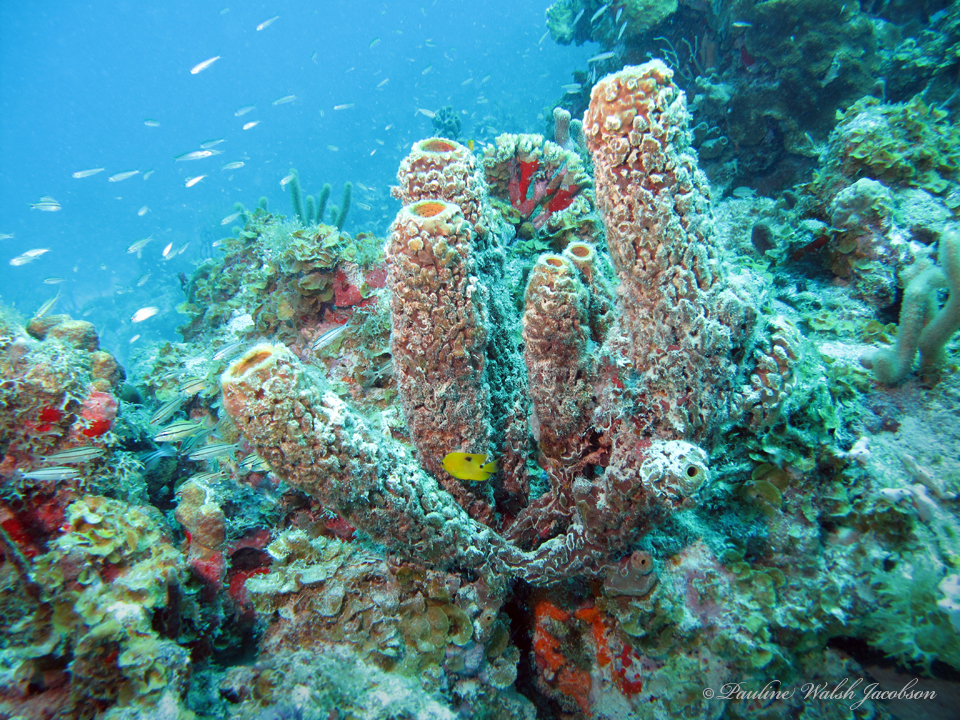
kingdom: Animalia
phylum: Porifera
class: Demospongiae
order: Verongiida
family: Aplysinidae
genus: Aplysina
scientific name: Aplysina archeri
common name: Stove-pipe sponge
